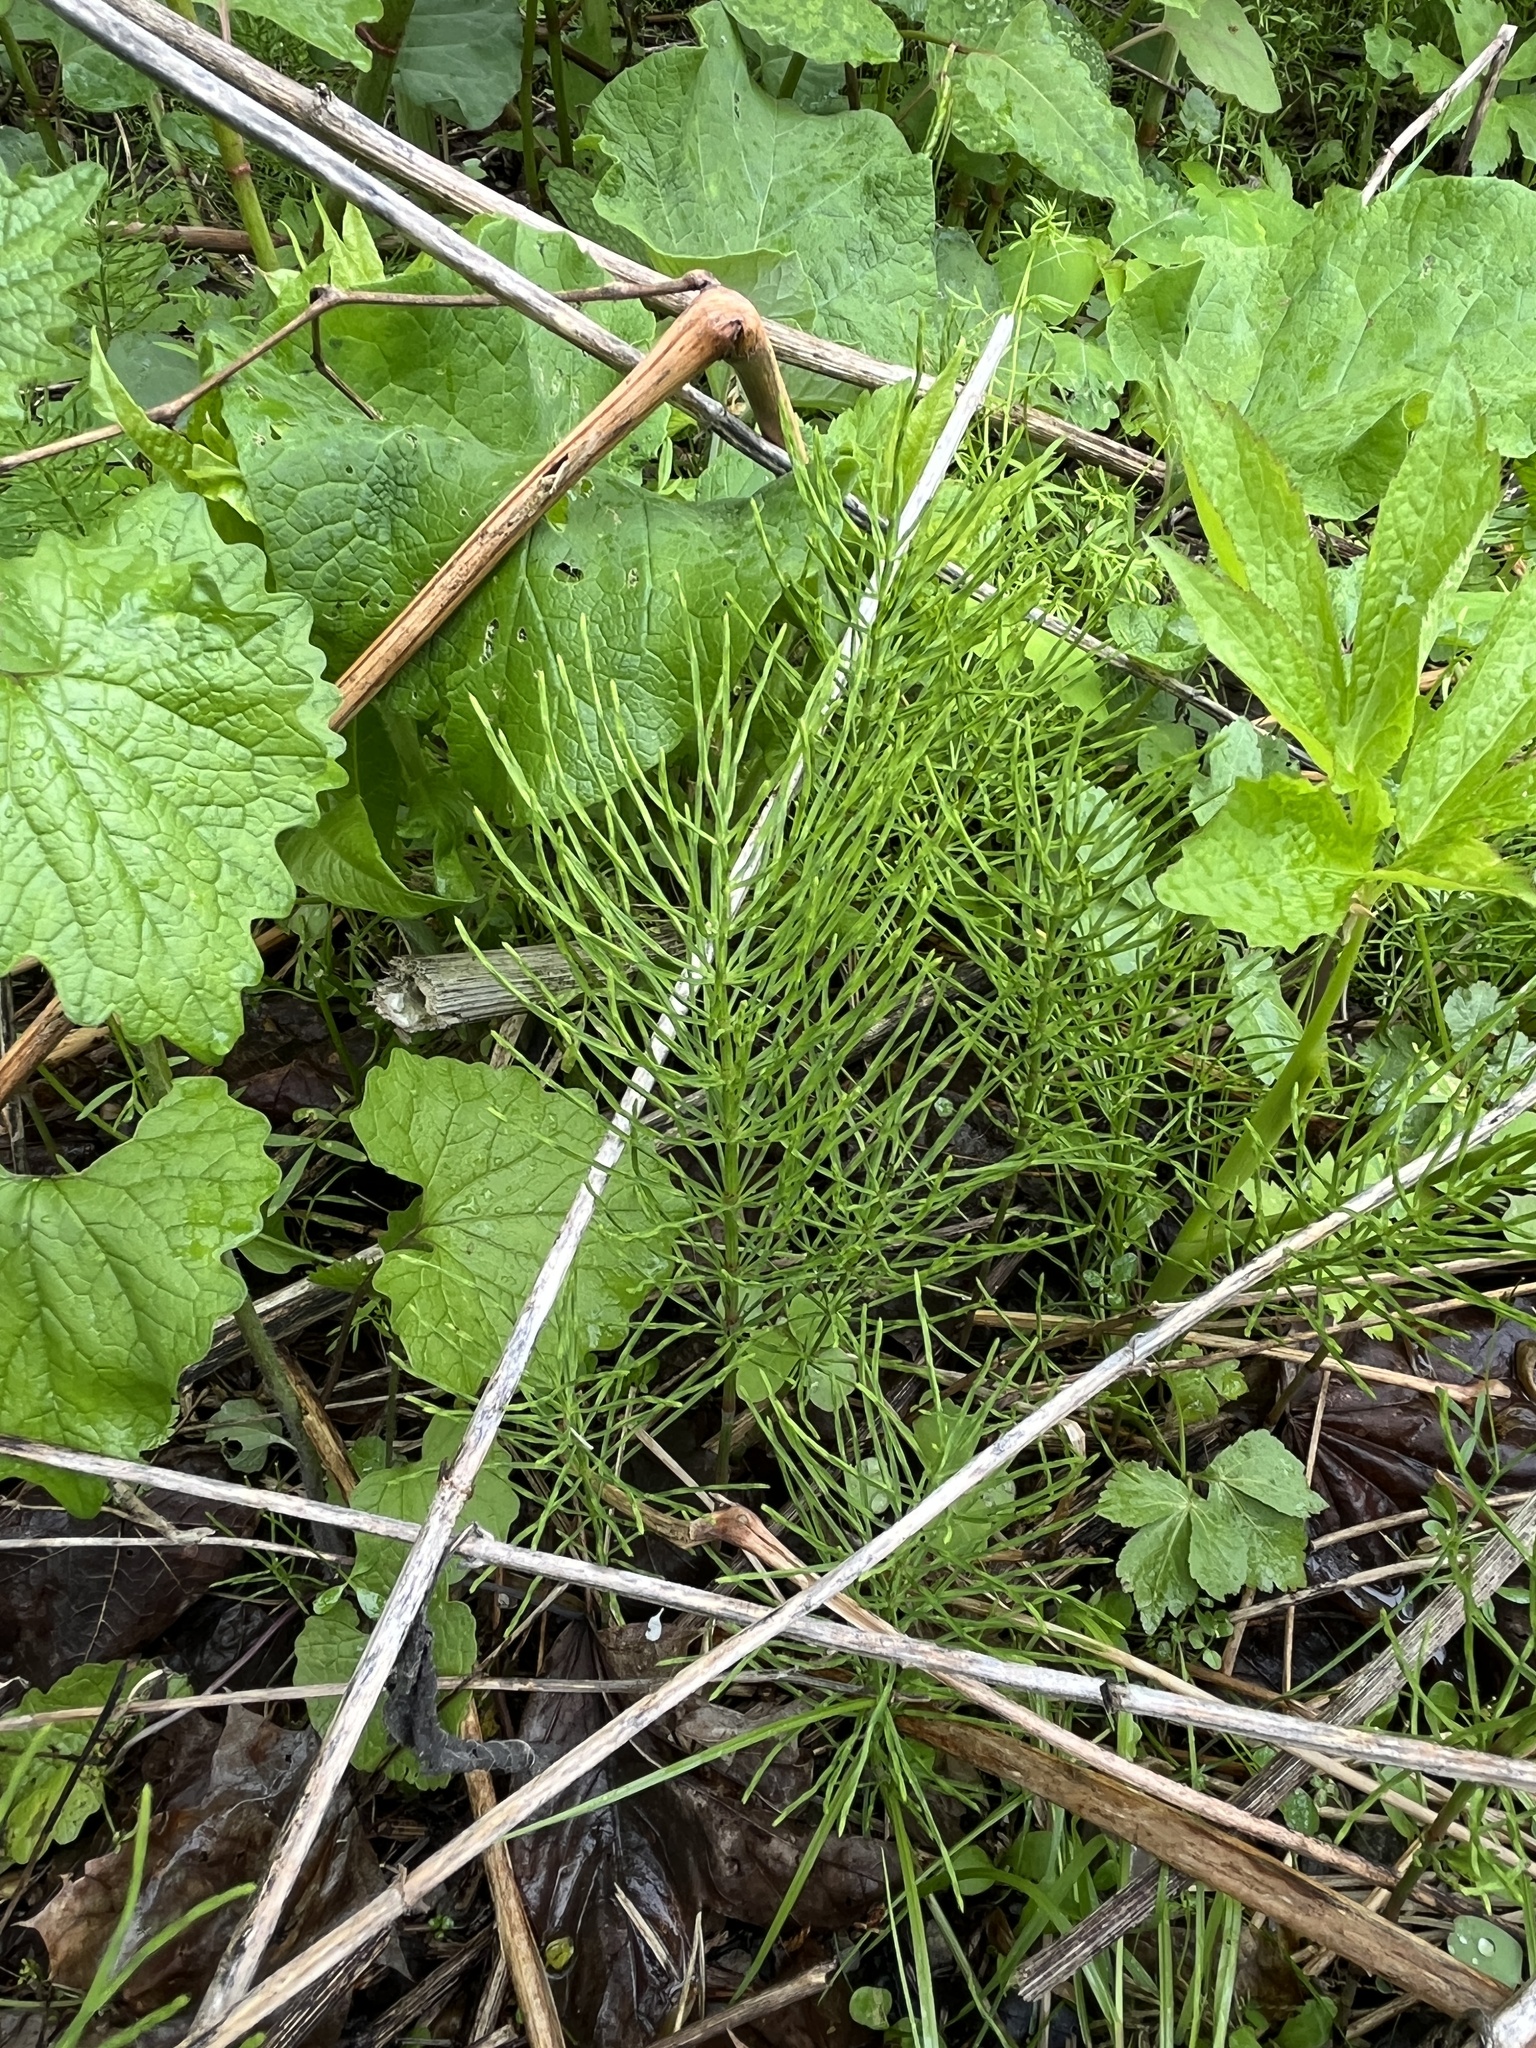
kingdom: Plantae
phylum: Tracheophyta
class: Polypodiopsida
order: Equisetales
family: Equisetaceae
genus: Equisetum
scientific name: Equisetum arvense
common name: Field horsetail
